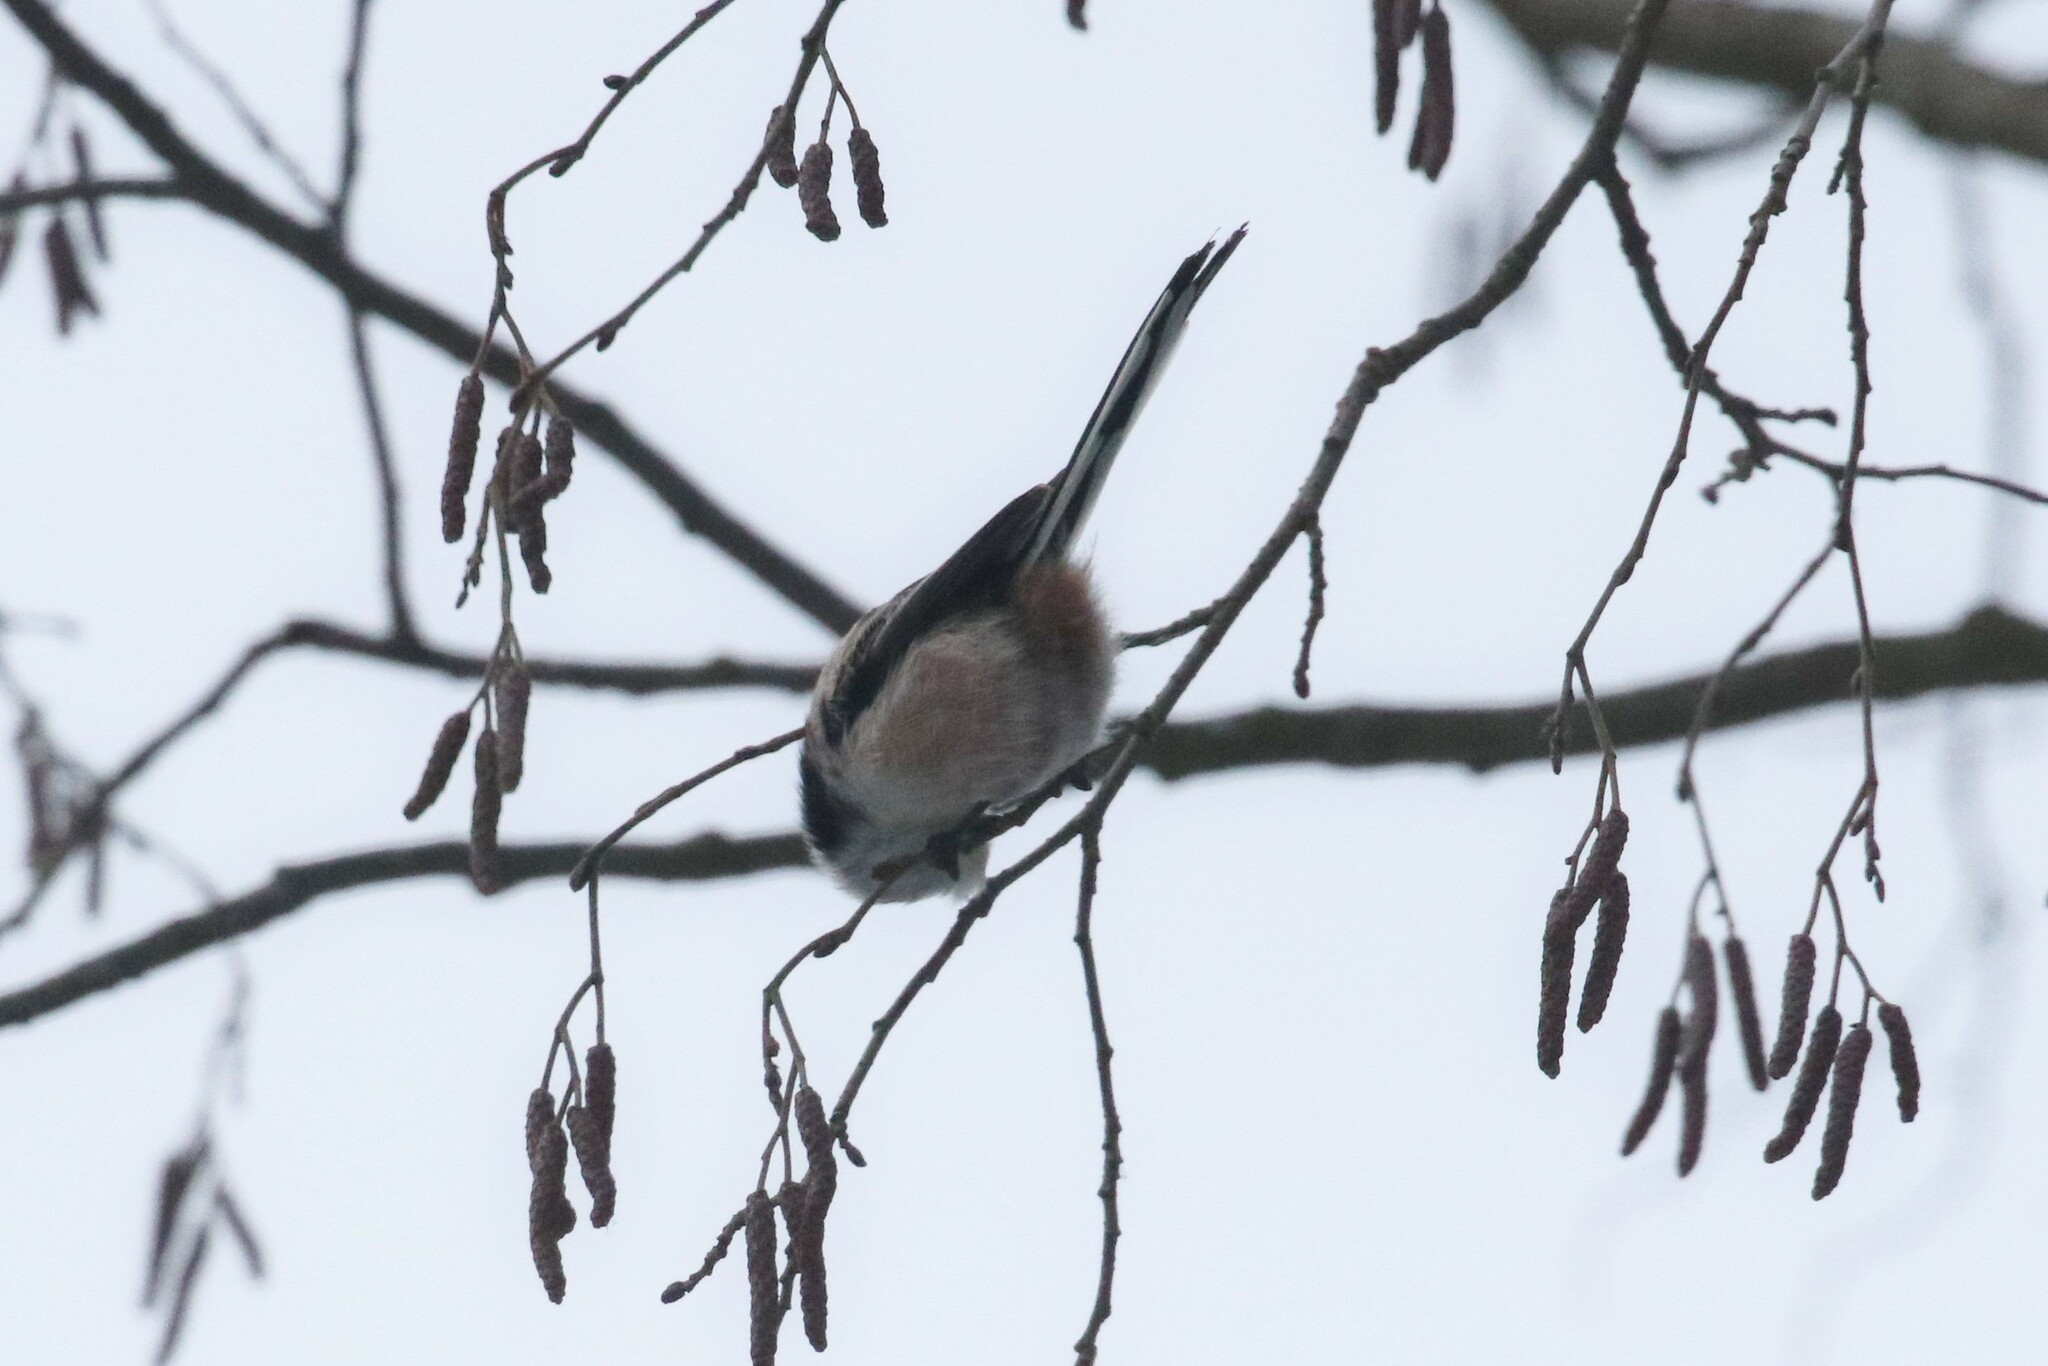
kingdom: Animalia
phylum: Chordata
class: Aves
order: Passeriformes
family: Aegithalidae
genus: Aegithalos
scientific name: Aegithalos caudatus
